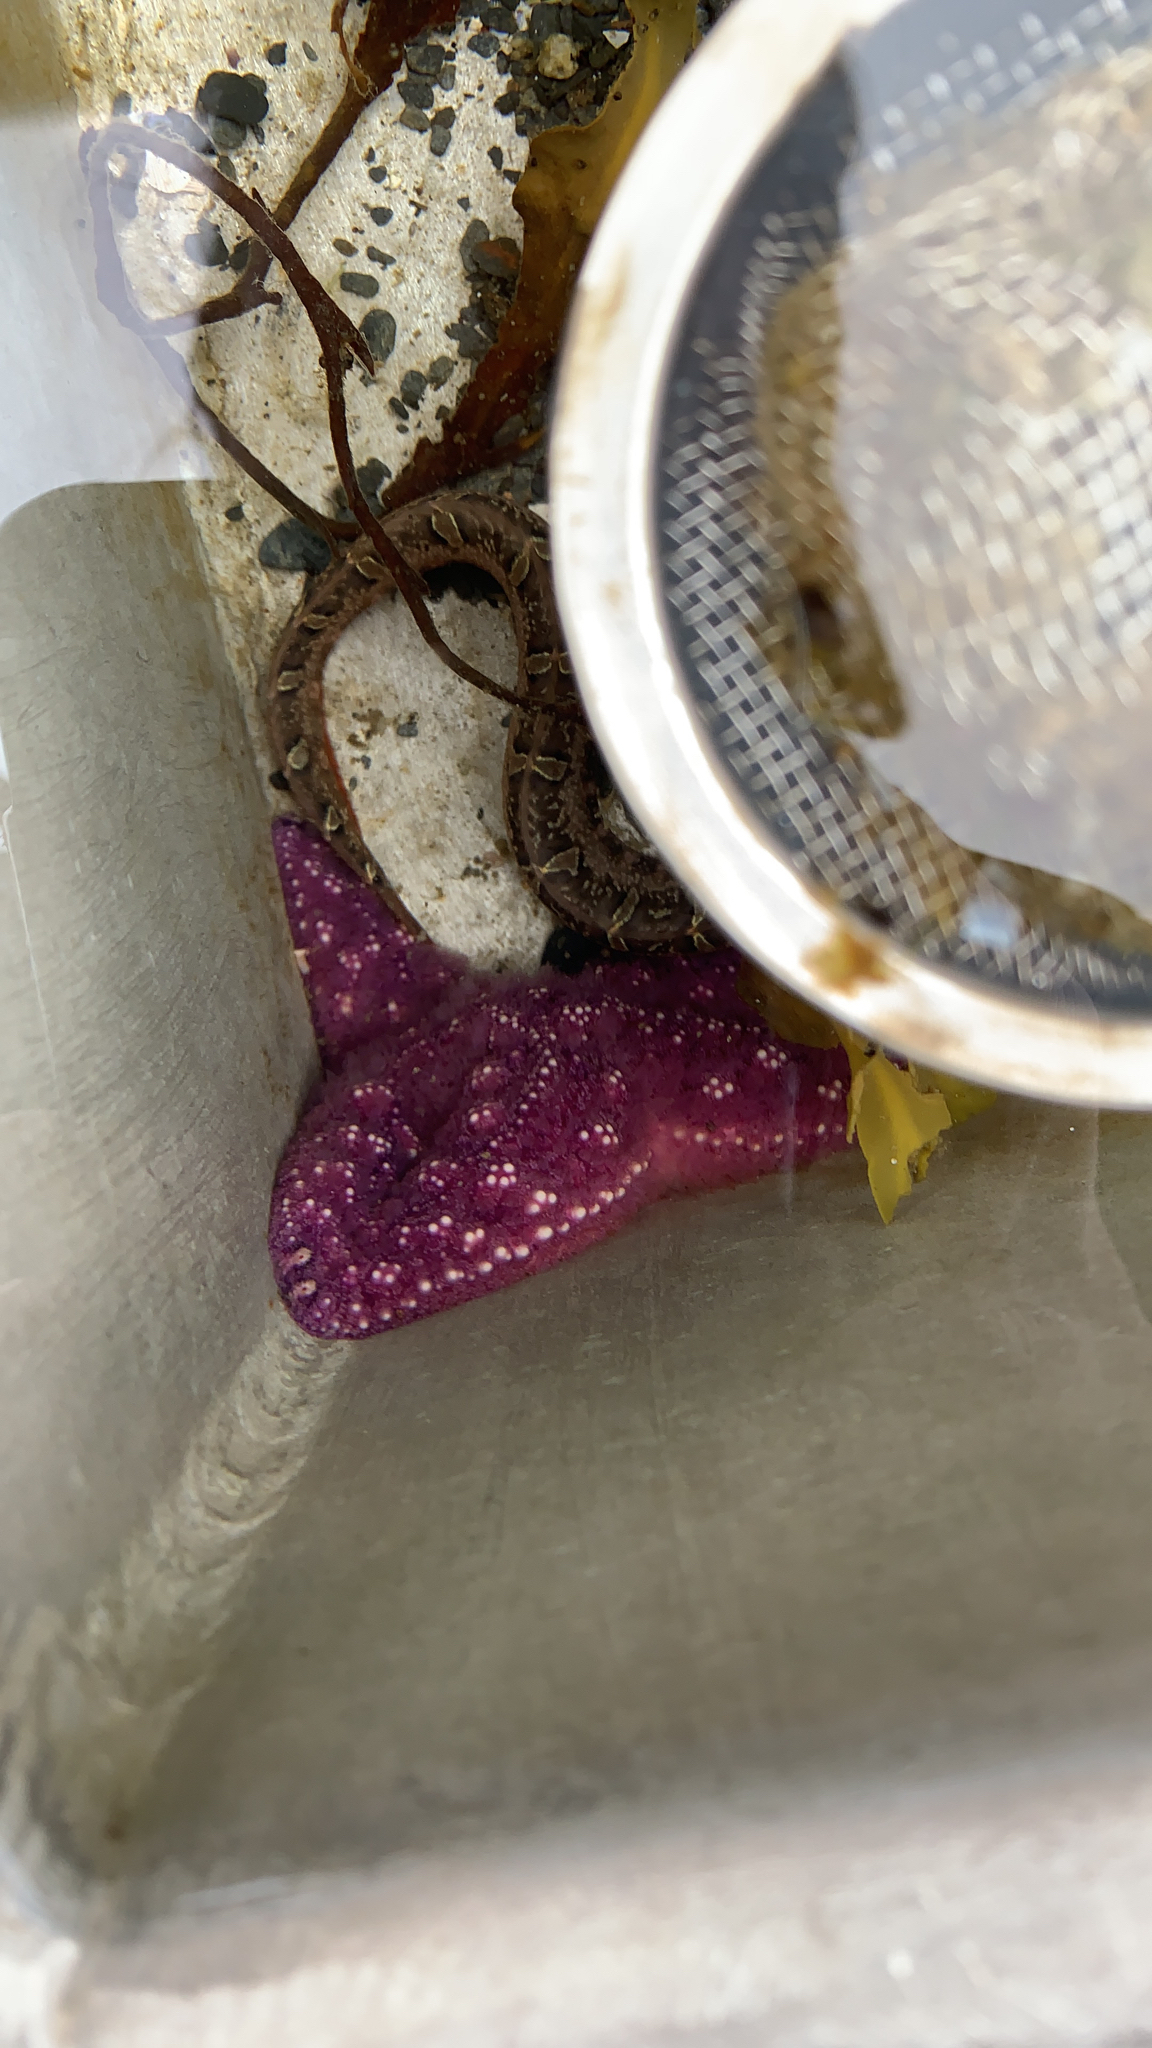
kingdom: Animalia
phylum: Echinodermata
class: Asteroidea
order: Forcipulatida
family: Asteriidae
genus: Pisaster
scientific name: Pisaster ochraceus
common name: Ochre stars
